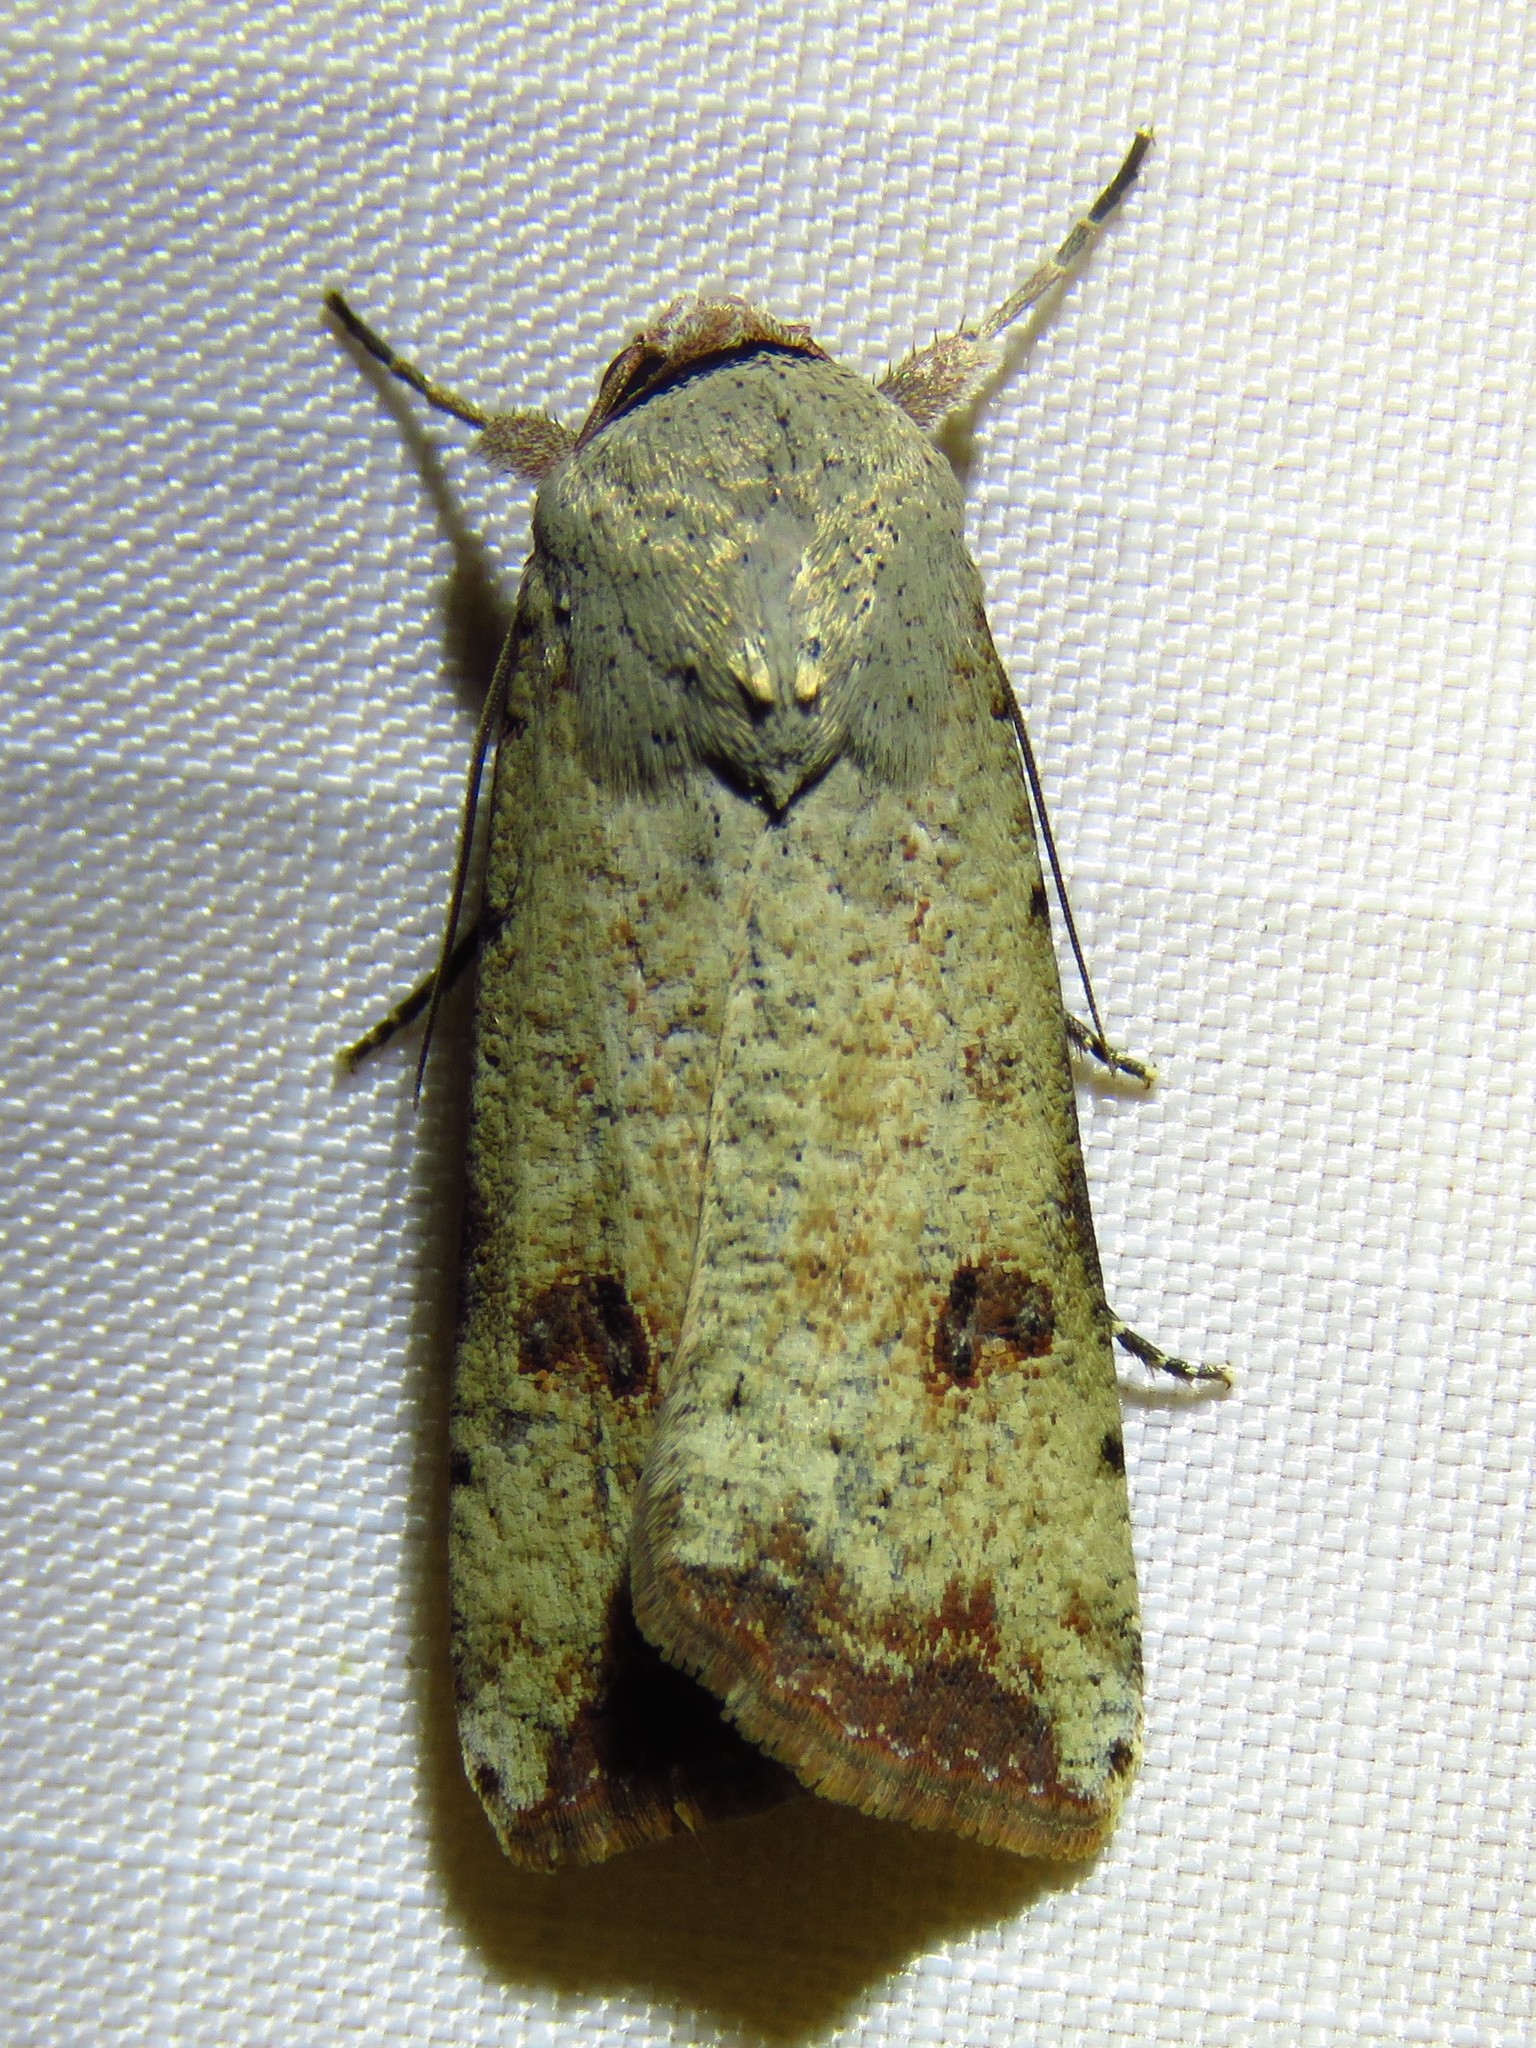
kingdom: Animalia
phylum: Arthropoda
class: Insecta
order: Lepidoptera
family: Noctuidae
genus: Anicla
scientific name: Anicla infecta
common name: Green cutworm
